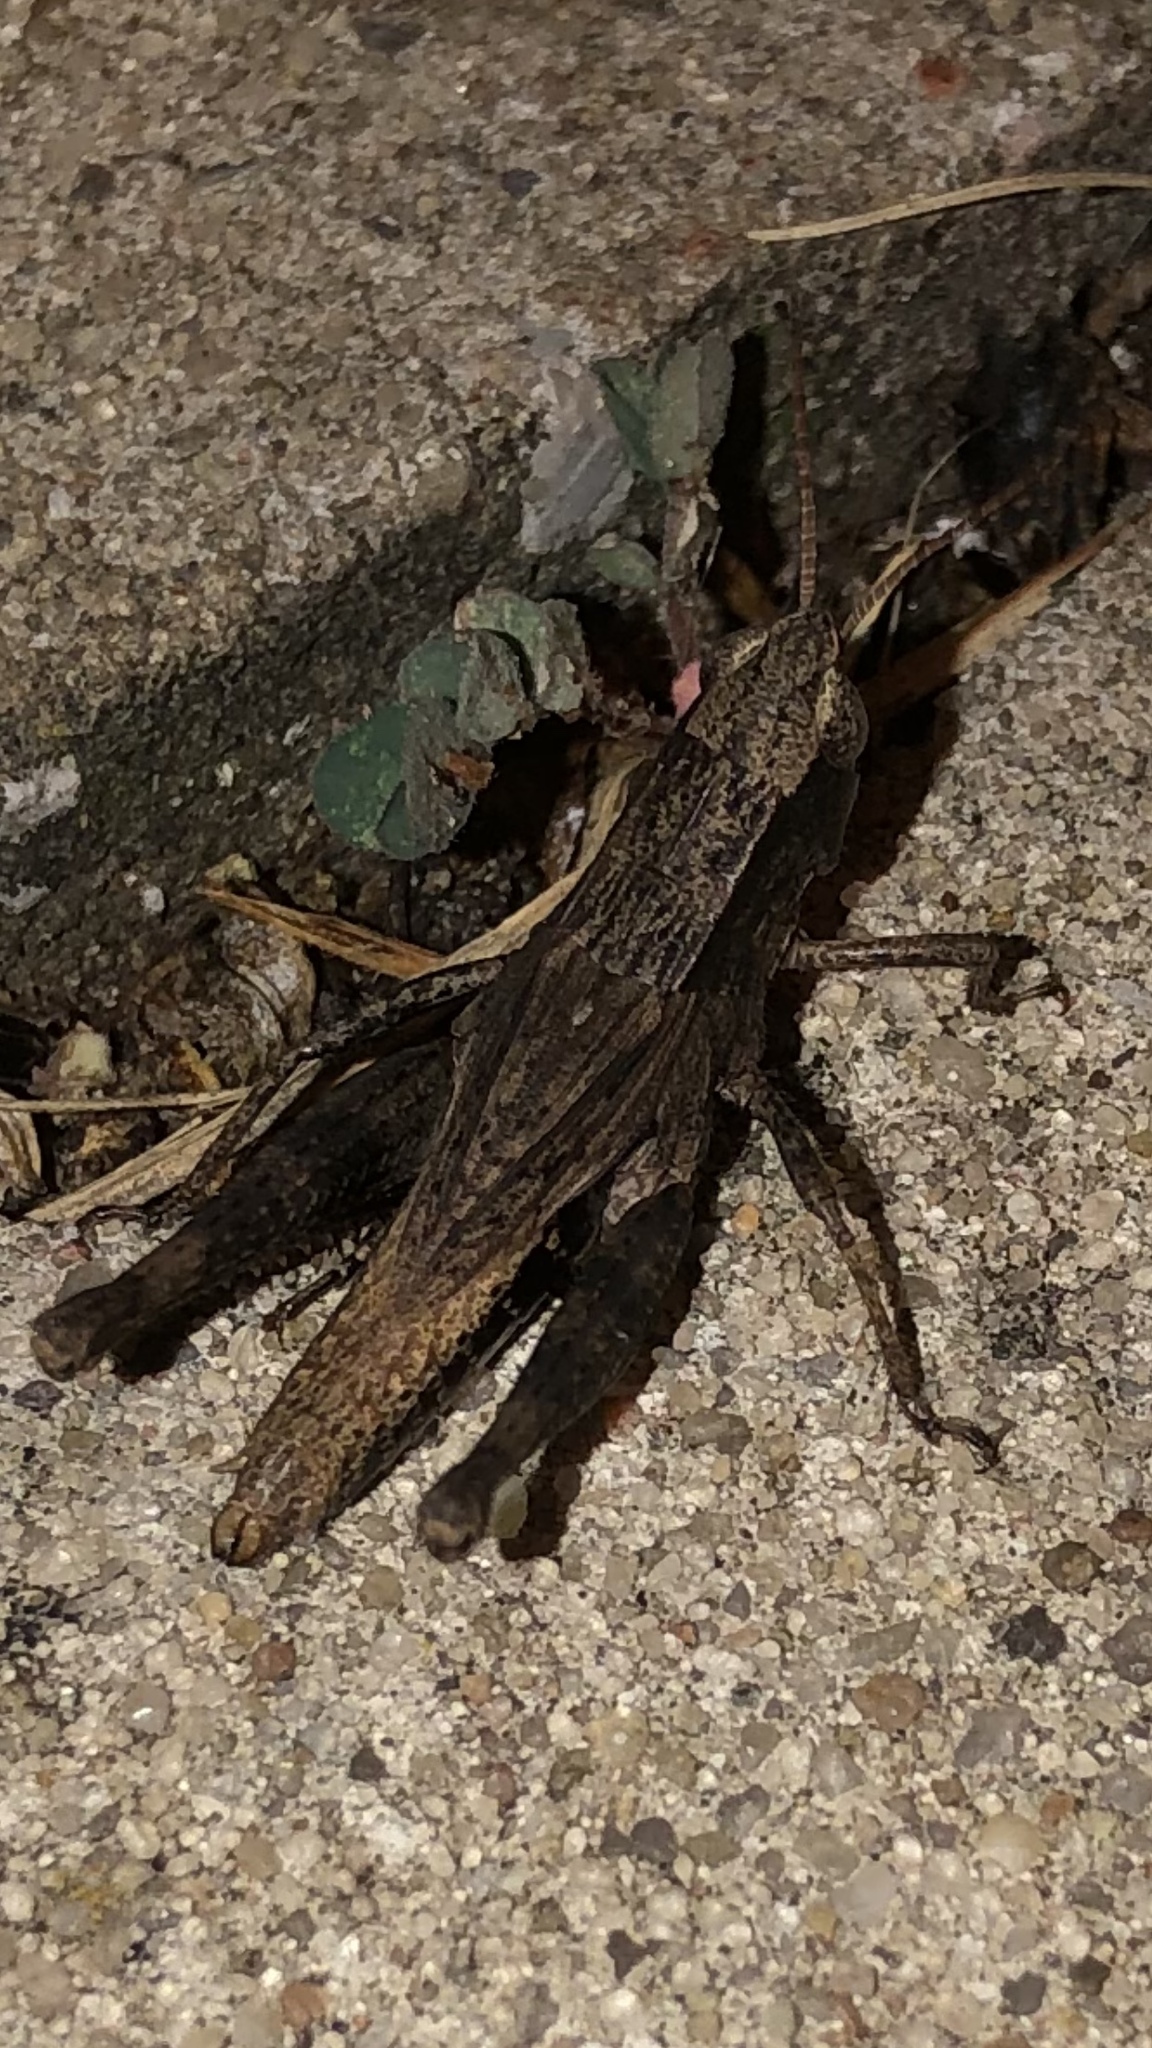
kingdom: Animalia
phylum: Arthropoda
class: Insecta
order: Orthoptera
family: Acrididae
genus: Dichromorpha
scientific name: Dichromorpha viridis
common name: Short-winged green grasshopper
